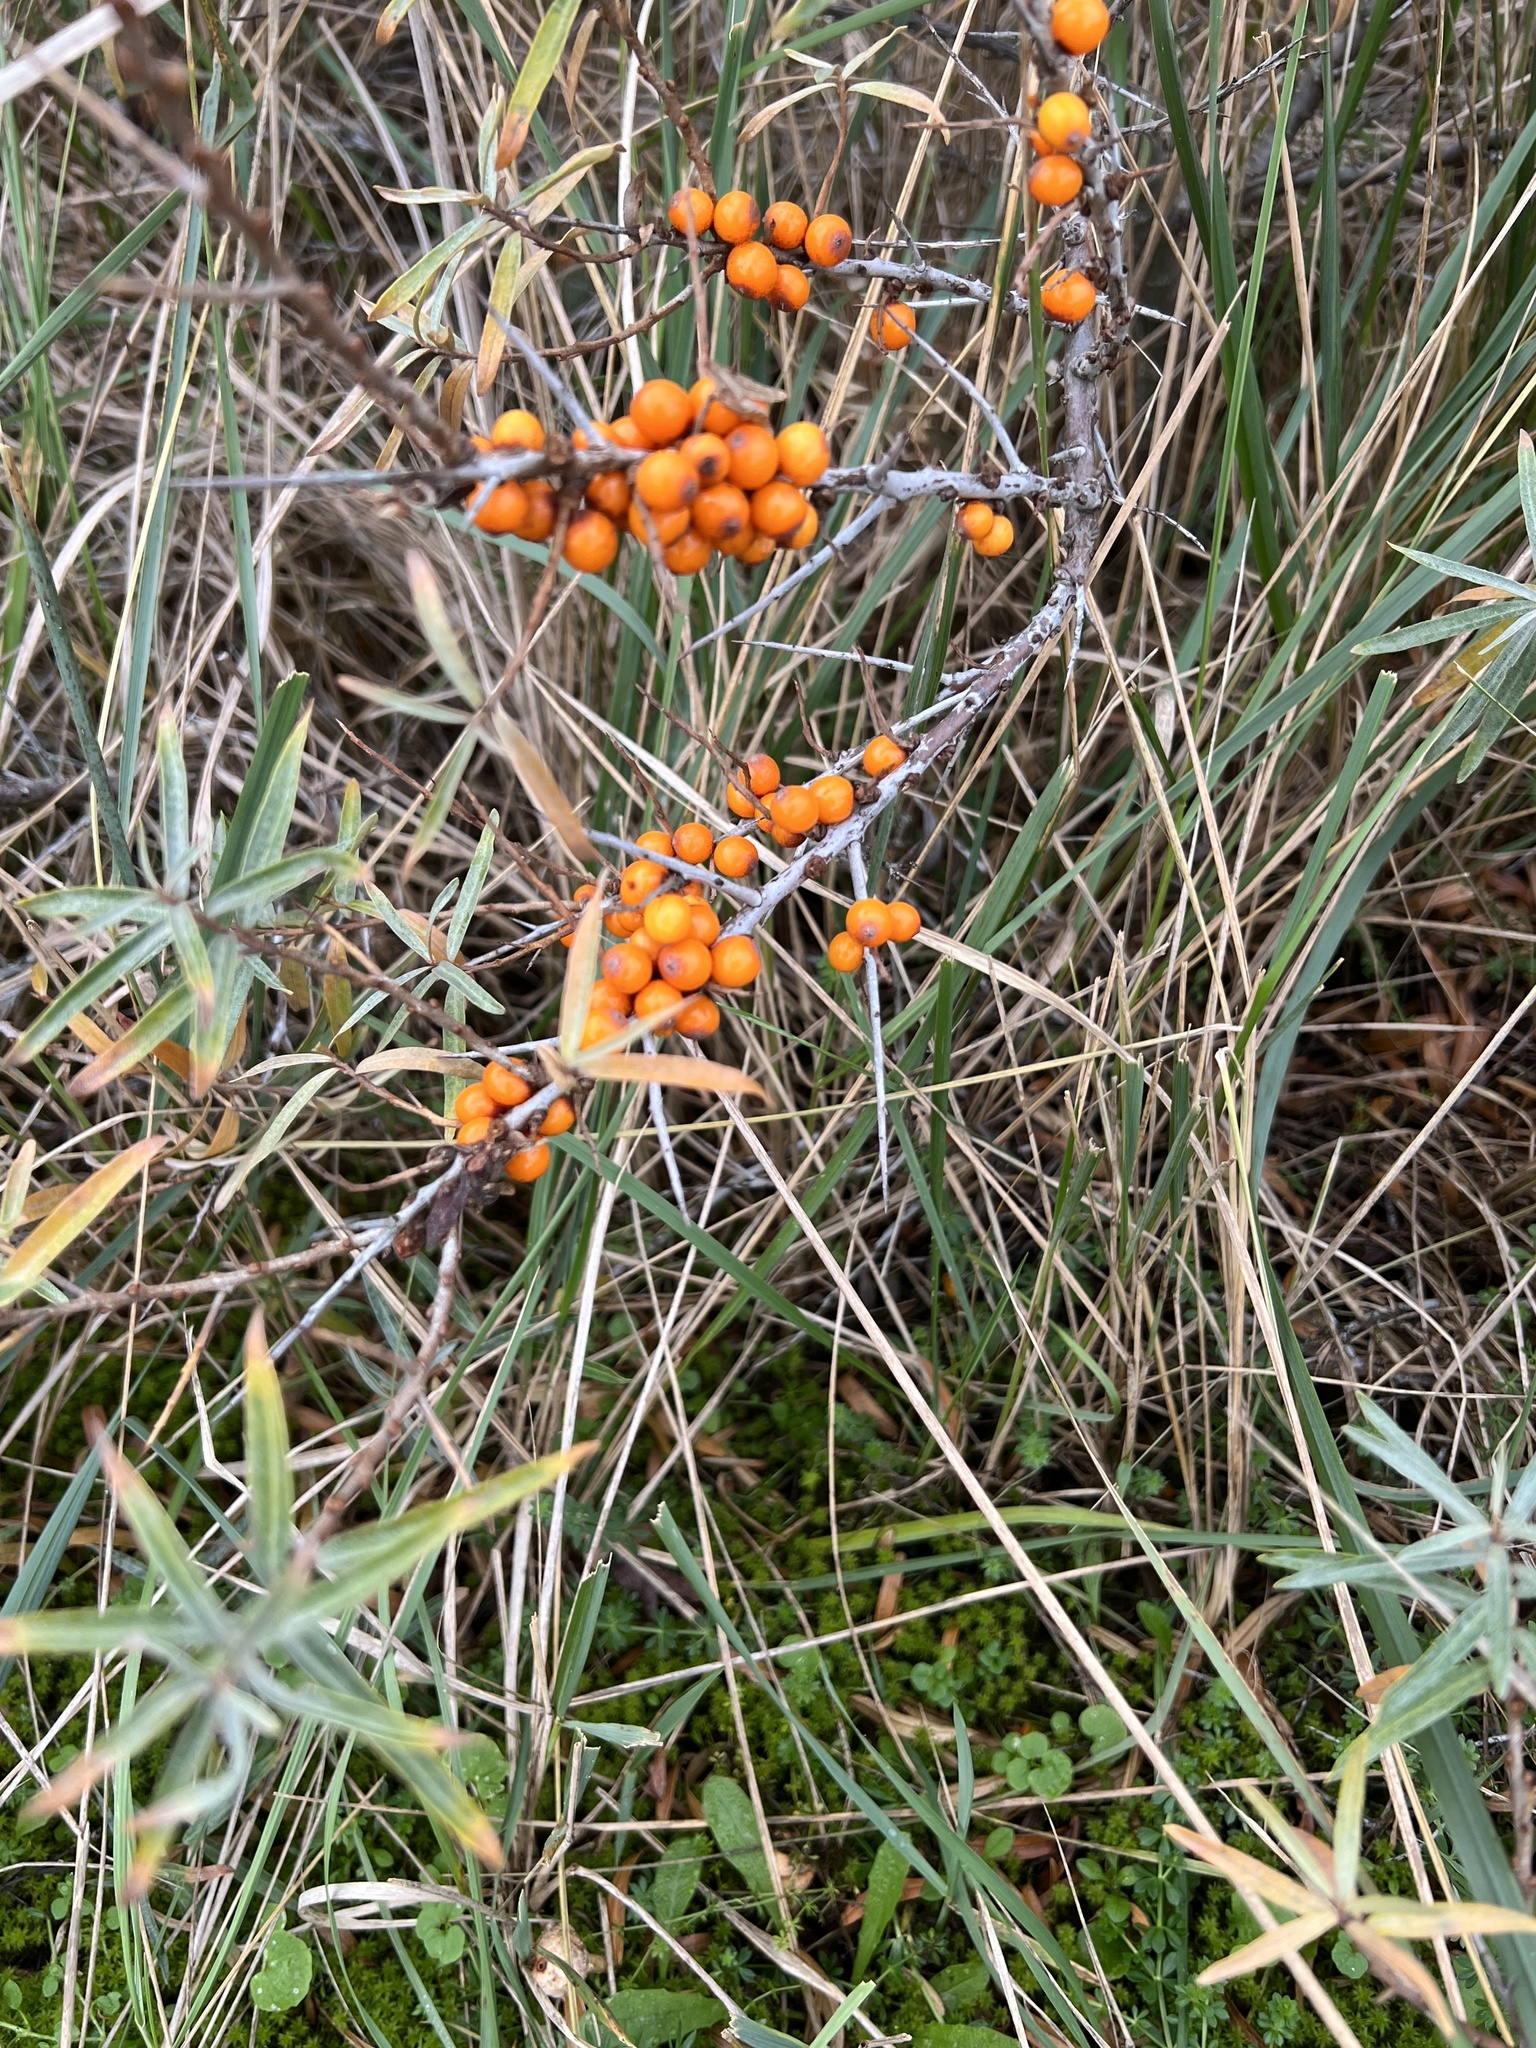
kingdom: Plantae
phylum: Tracheophyta
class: Magnoliopsida
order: Rosales
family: Elaeagnaceae
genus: Hippophae
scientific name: Hippophae rhamnoides
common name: Sea-buckthorn
